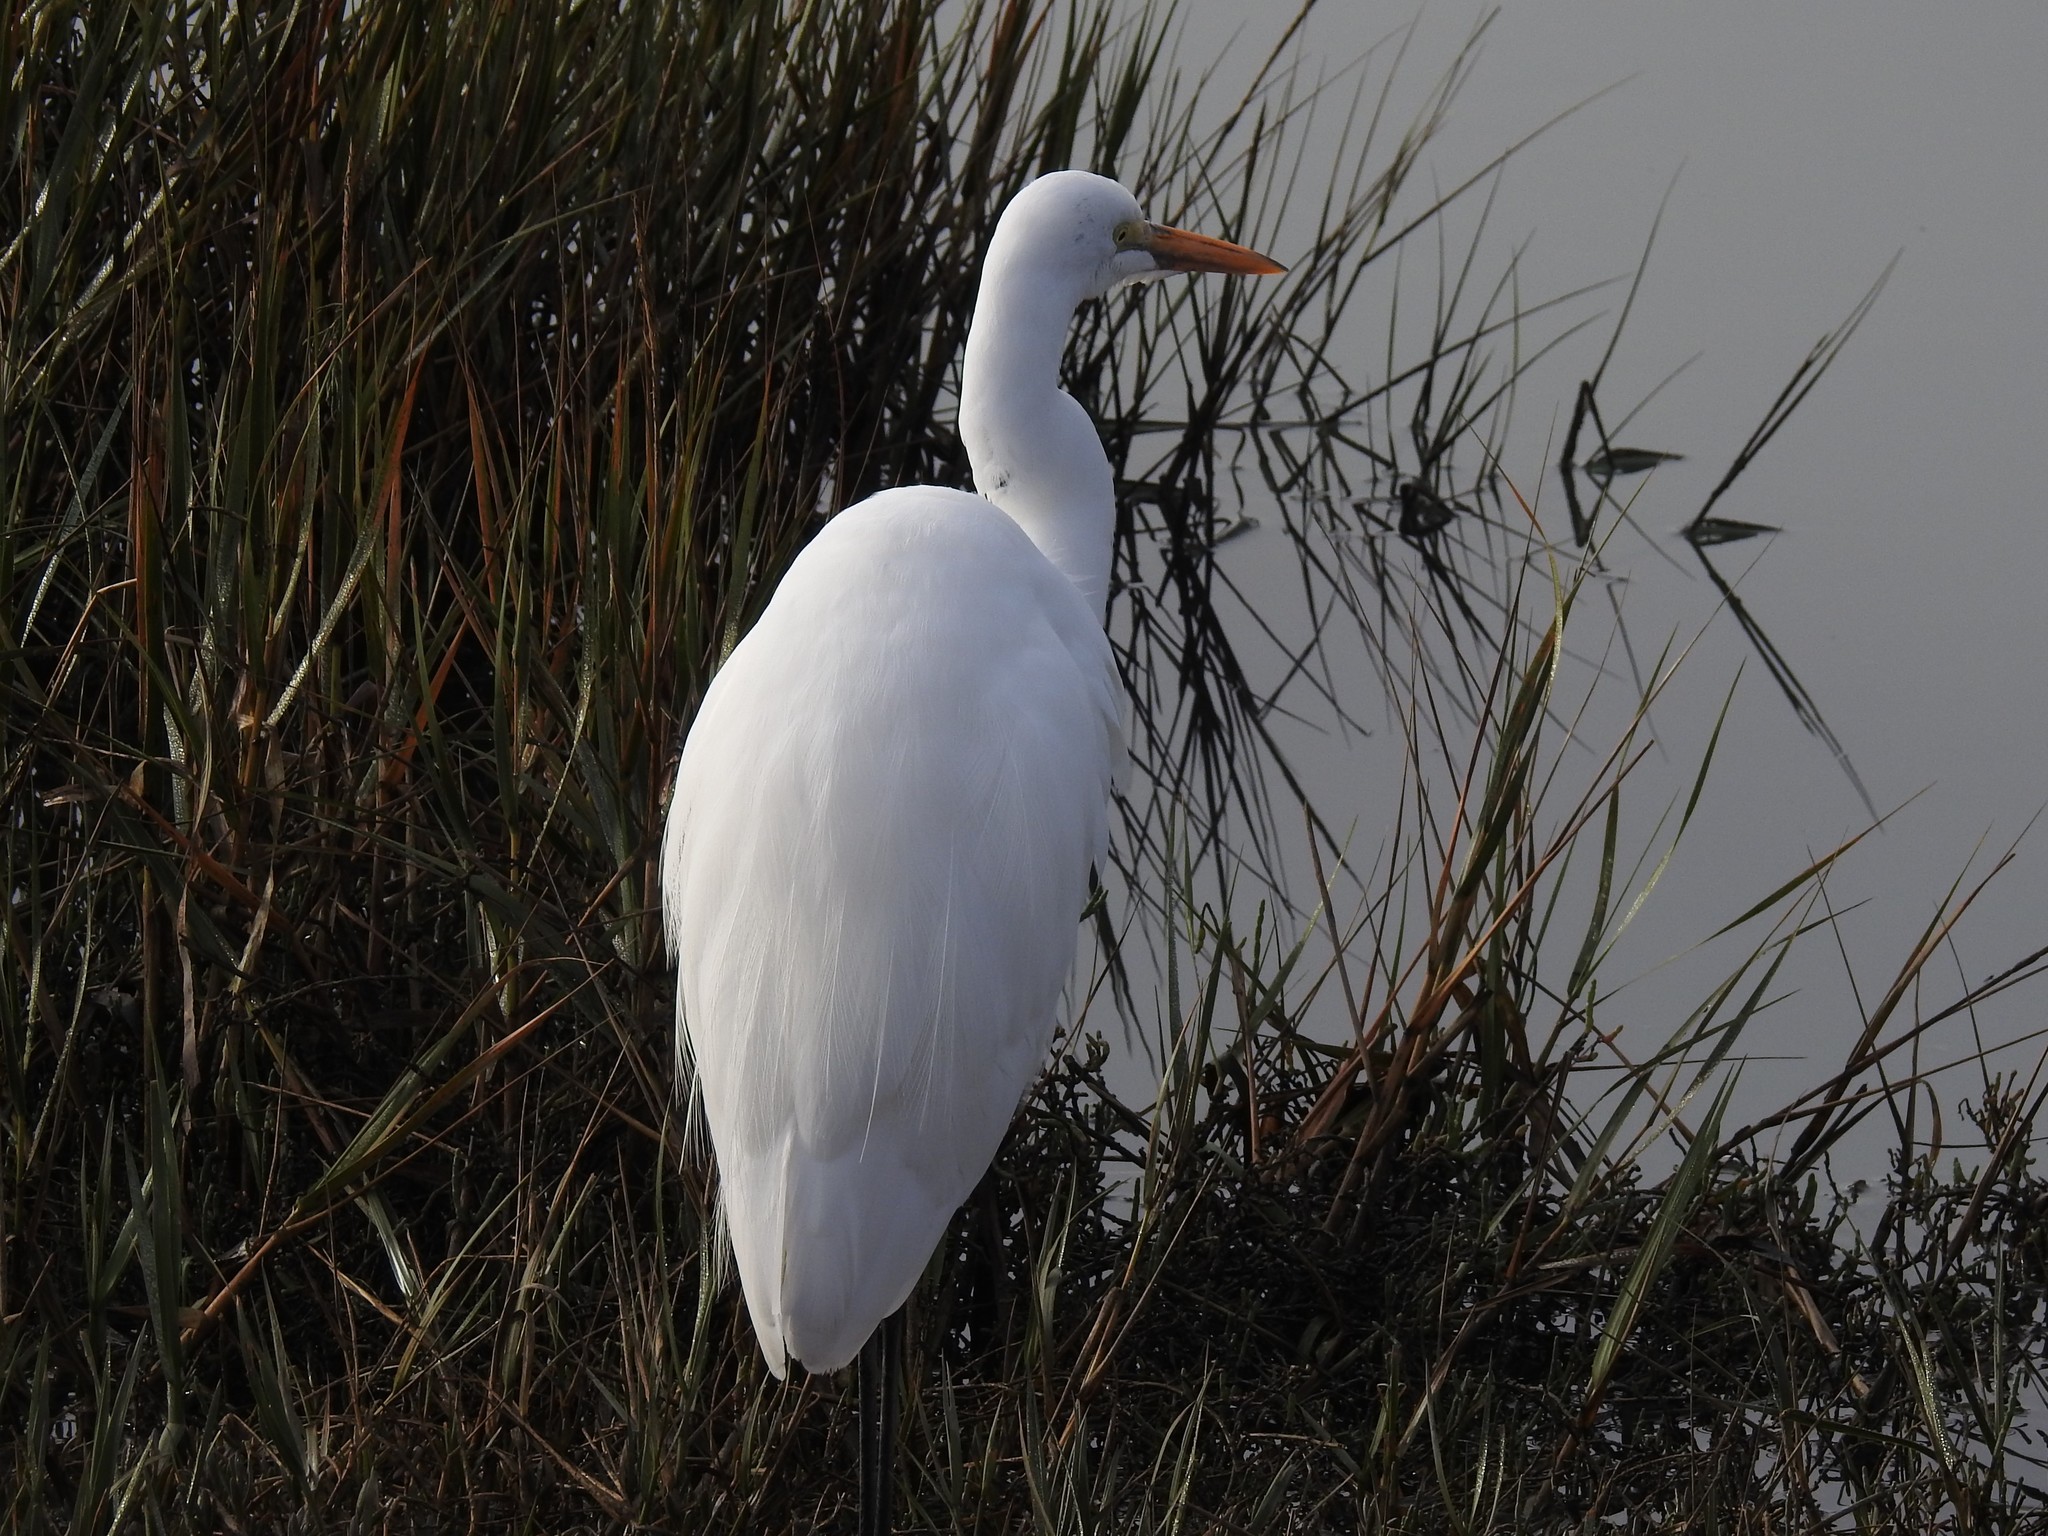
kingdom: Animalia
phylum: Chordata
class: Aves
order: Pelecaniformes
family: Ardeidae
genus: Ardea
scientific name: Ardea alba
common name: Great egret
